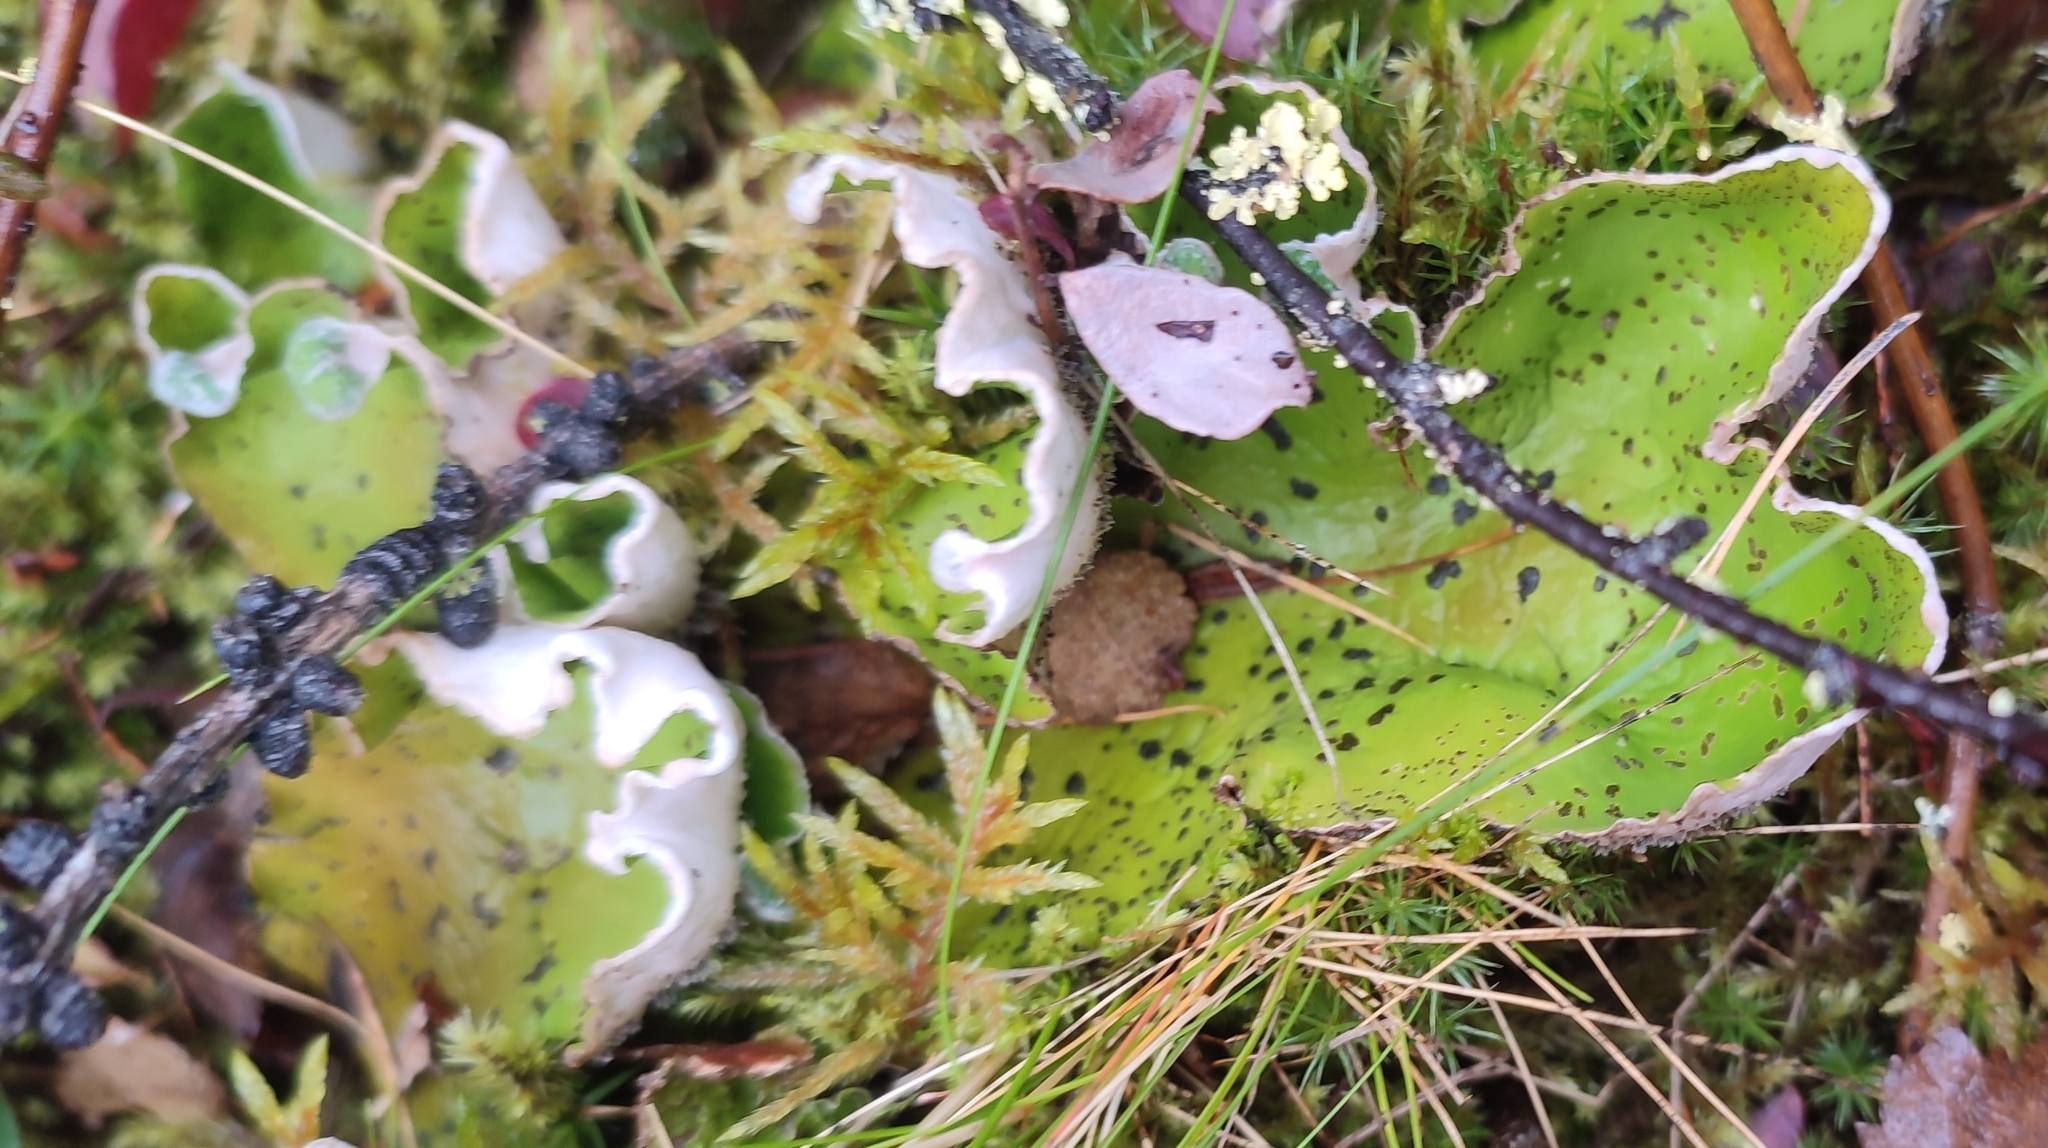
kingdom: Fungi
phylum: Ascomycota
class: Lecanoromycetes
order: Peltigerales
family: Peltigeraceae
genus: Peltigera
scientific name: Peltigera aphthosa
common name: Common freckle pelt lichen
